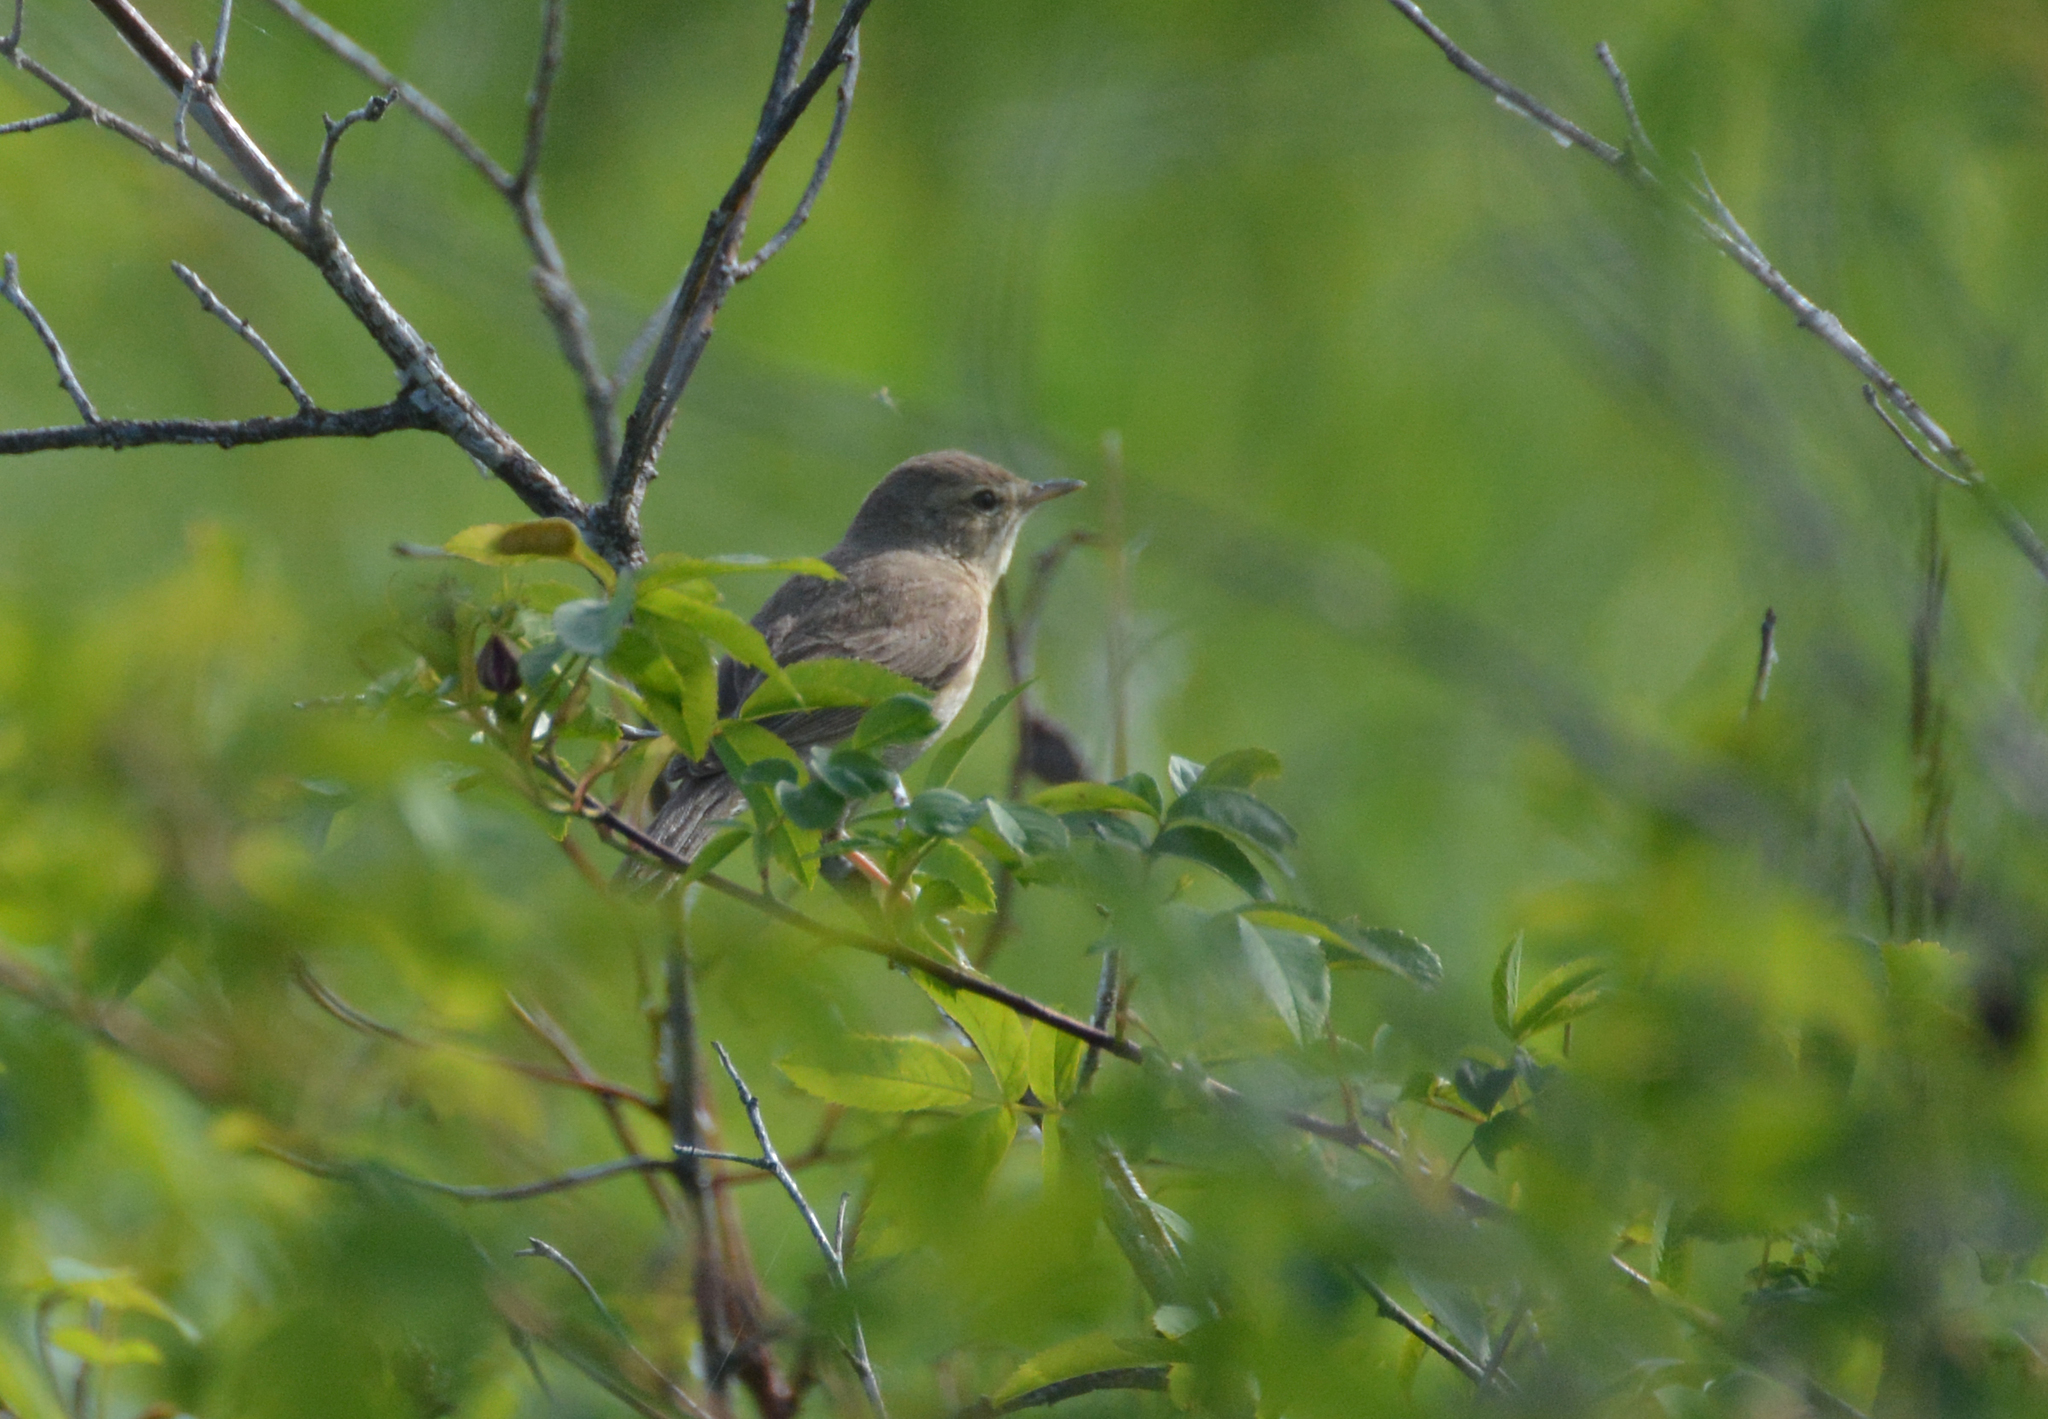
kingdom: Animalia
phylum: Chordata
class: Aves
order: Passeriformes
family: Acrocephalidae
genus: Iduna
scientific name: Iduna caligata
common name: Booted warbler
